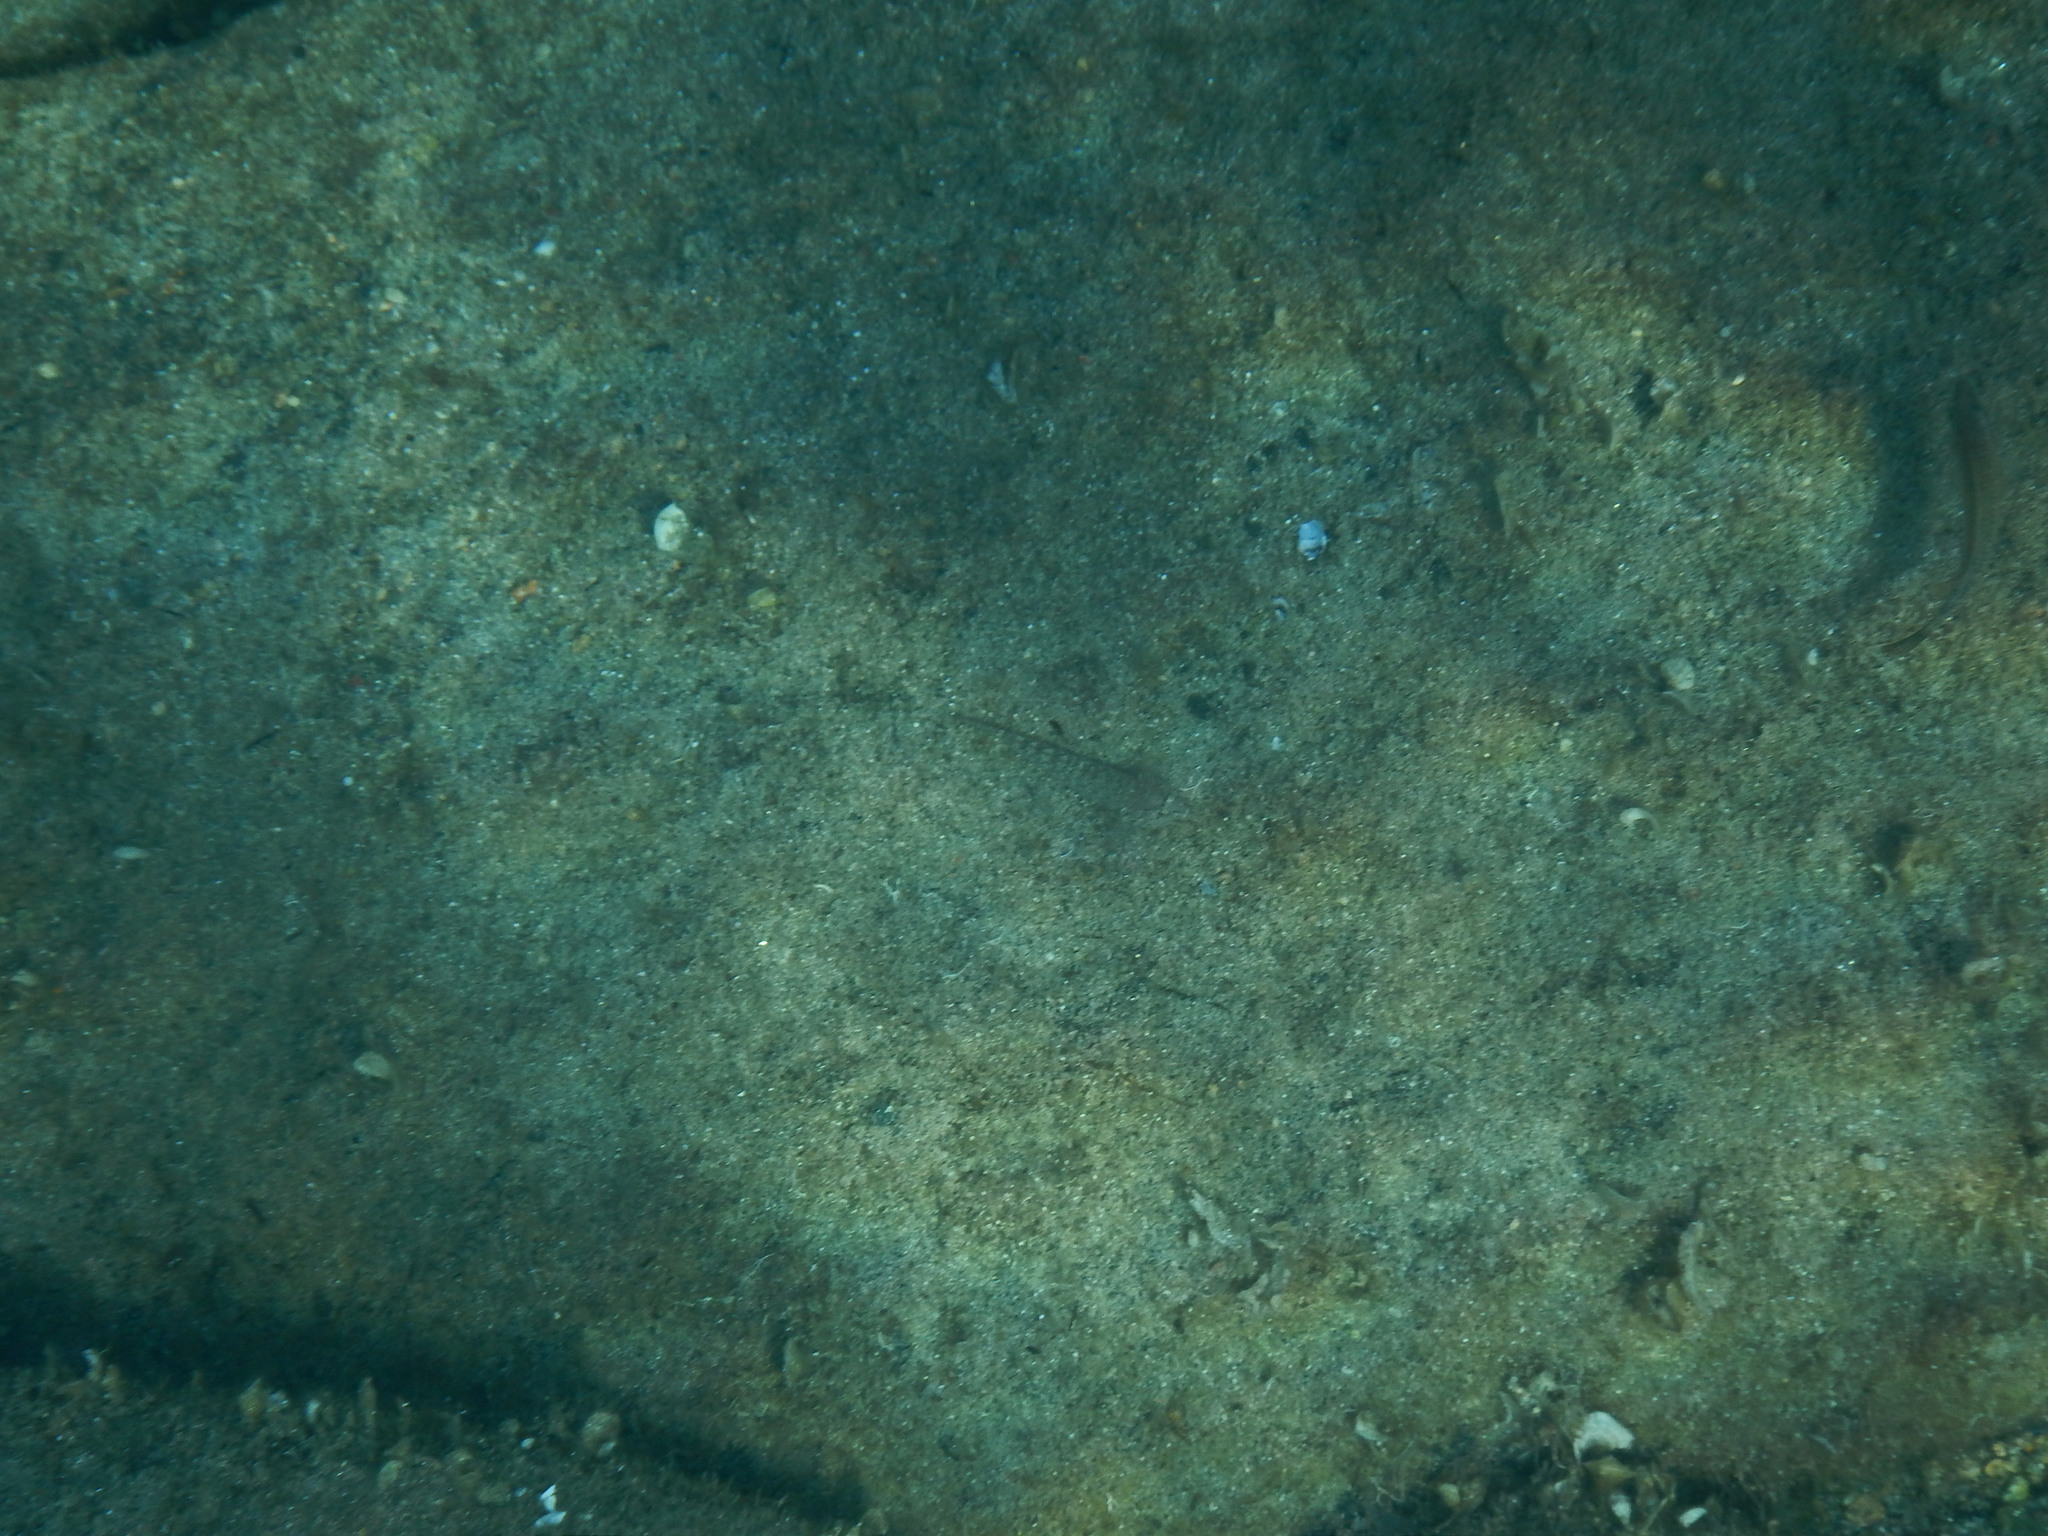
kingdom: Animalia
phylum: Chordata
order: Perciformes
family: Gobiidae
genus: Gobius
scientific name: Gobius incognitus
